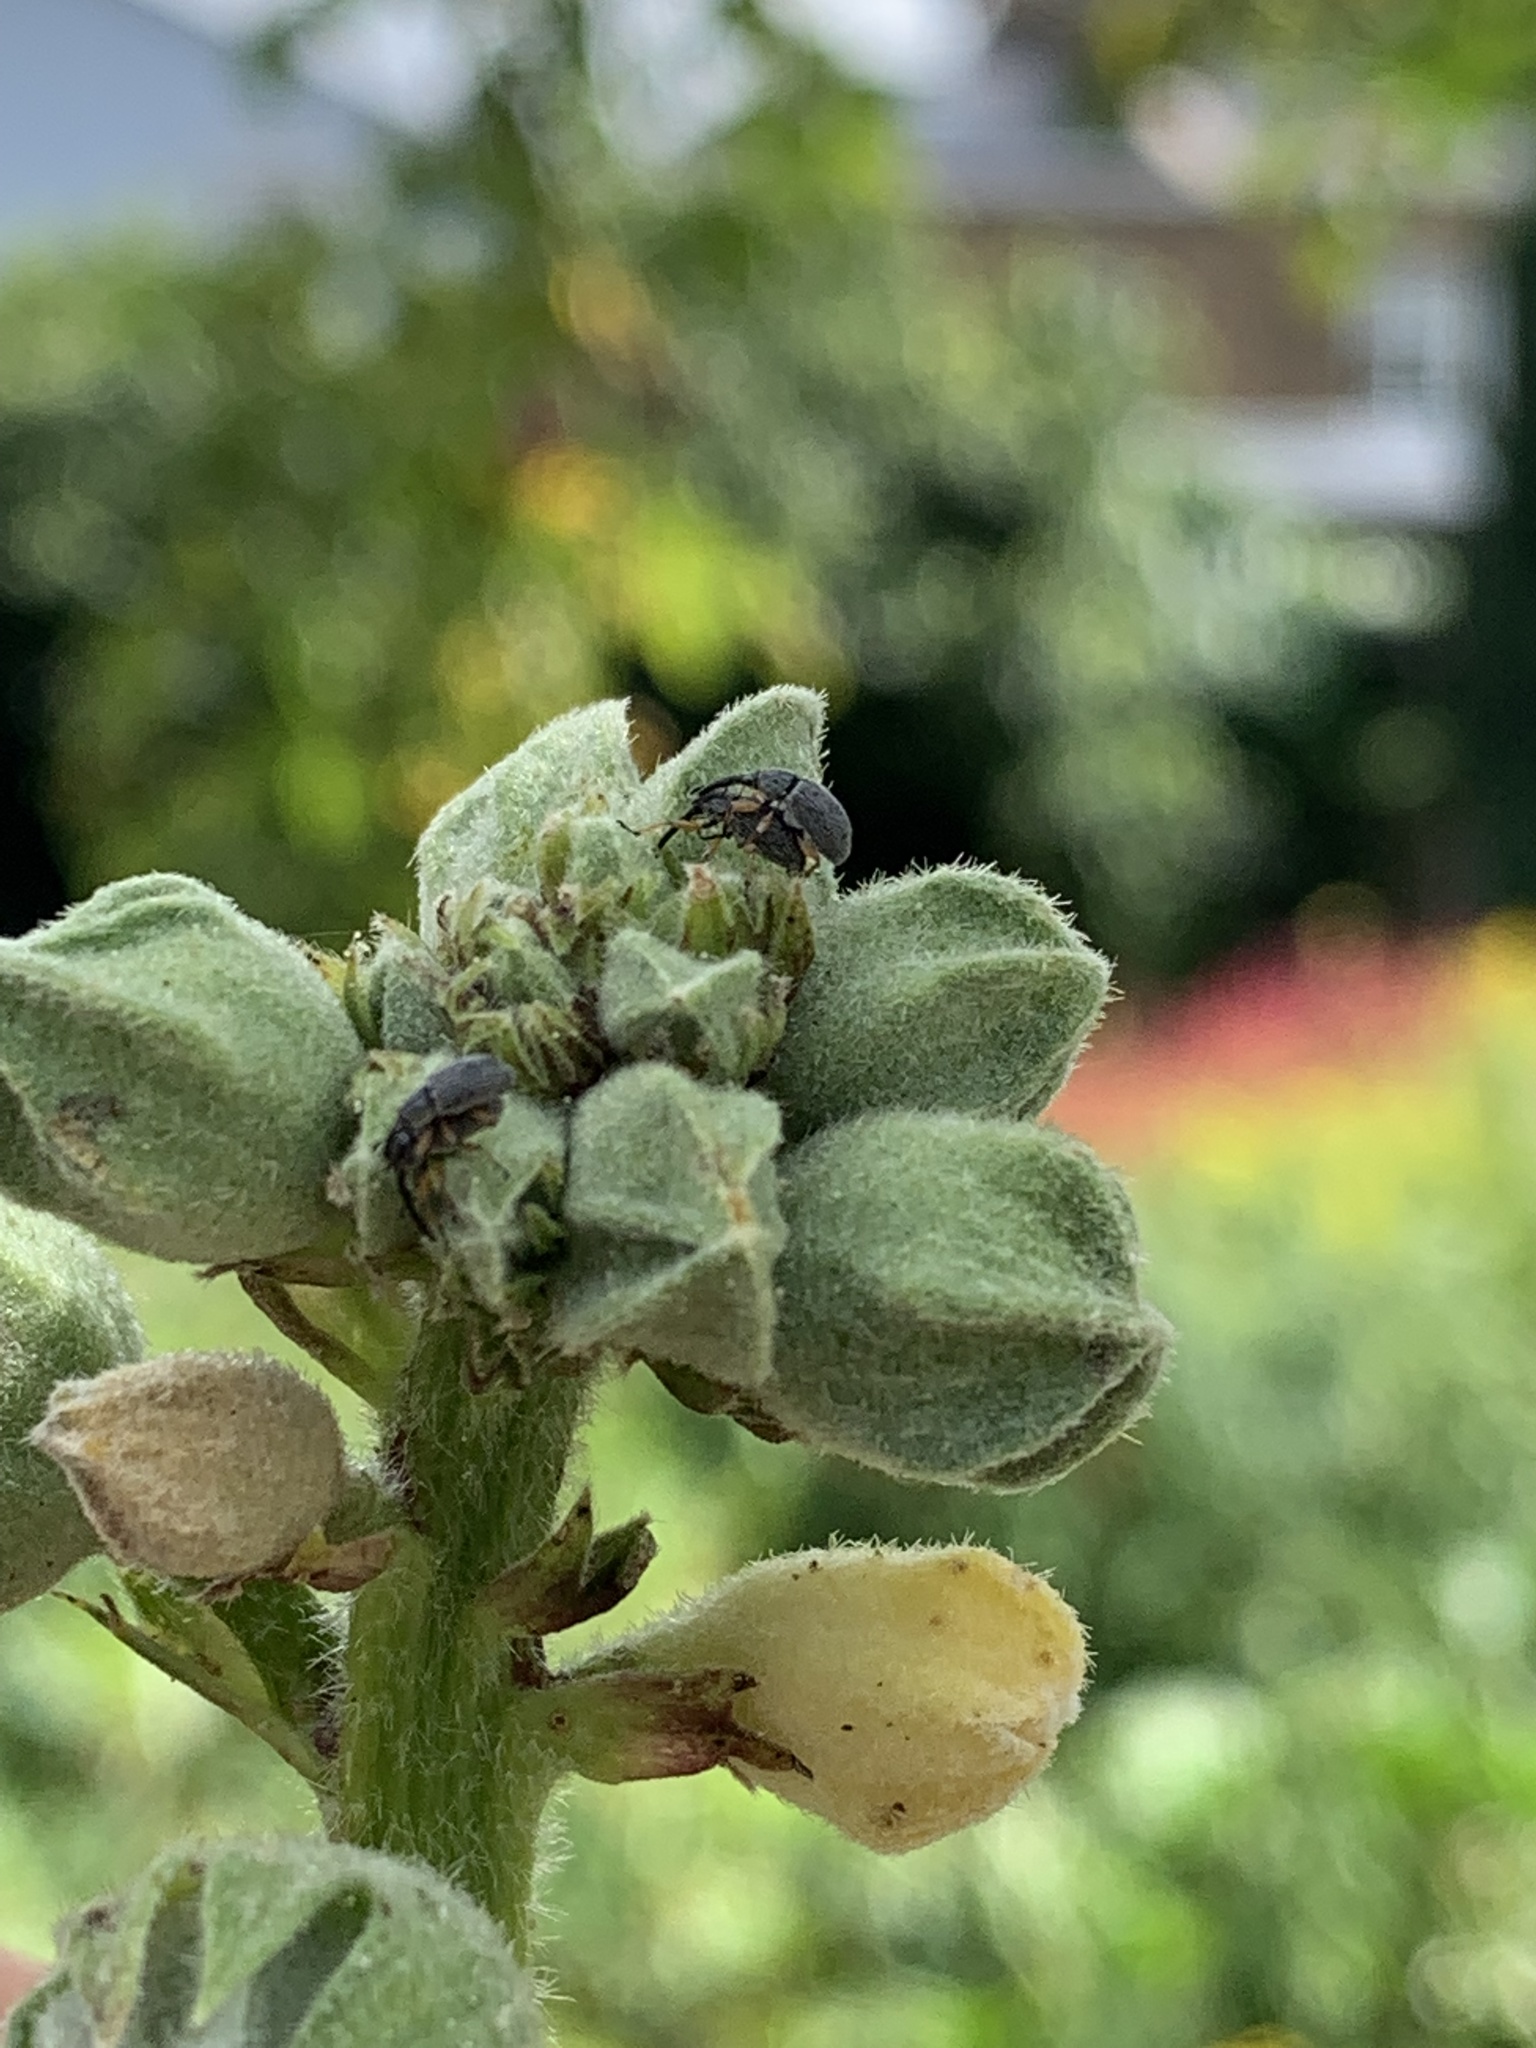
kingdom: Animalia
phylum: Arthropoda
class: Insecta
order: Coleoptera
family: Brentidae
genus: Rhopalapion
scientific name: Rhopalapion longirostre
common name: Hollyhock weevil
